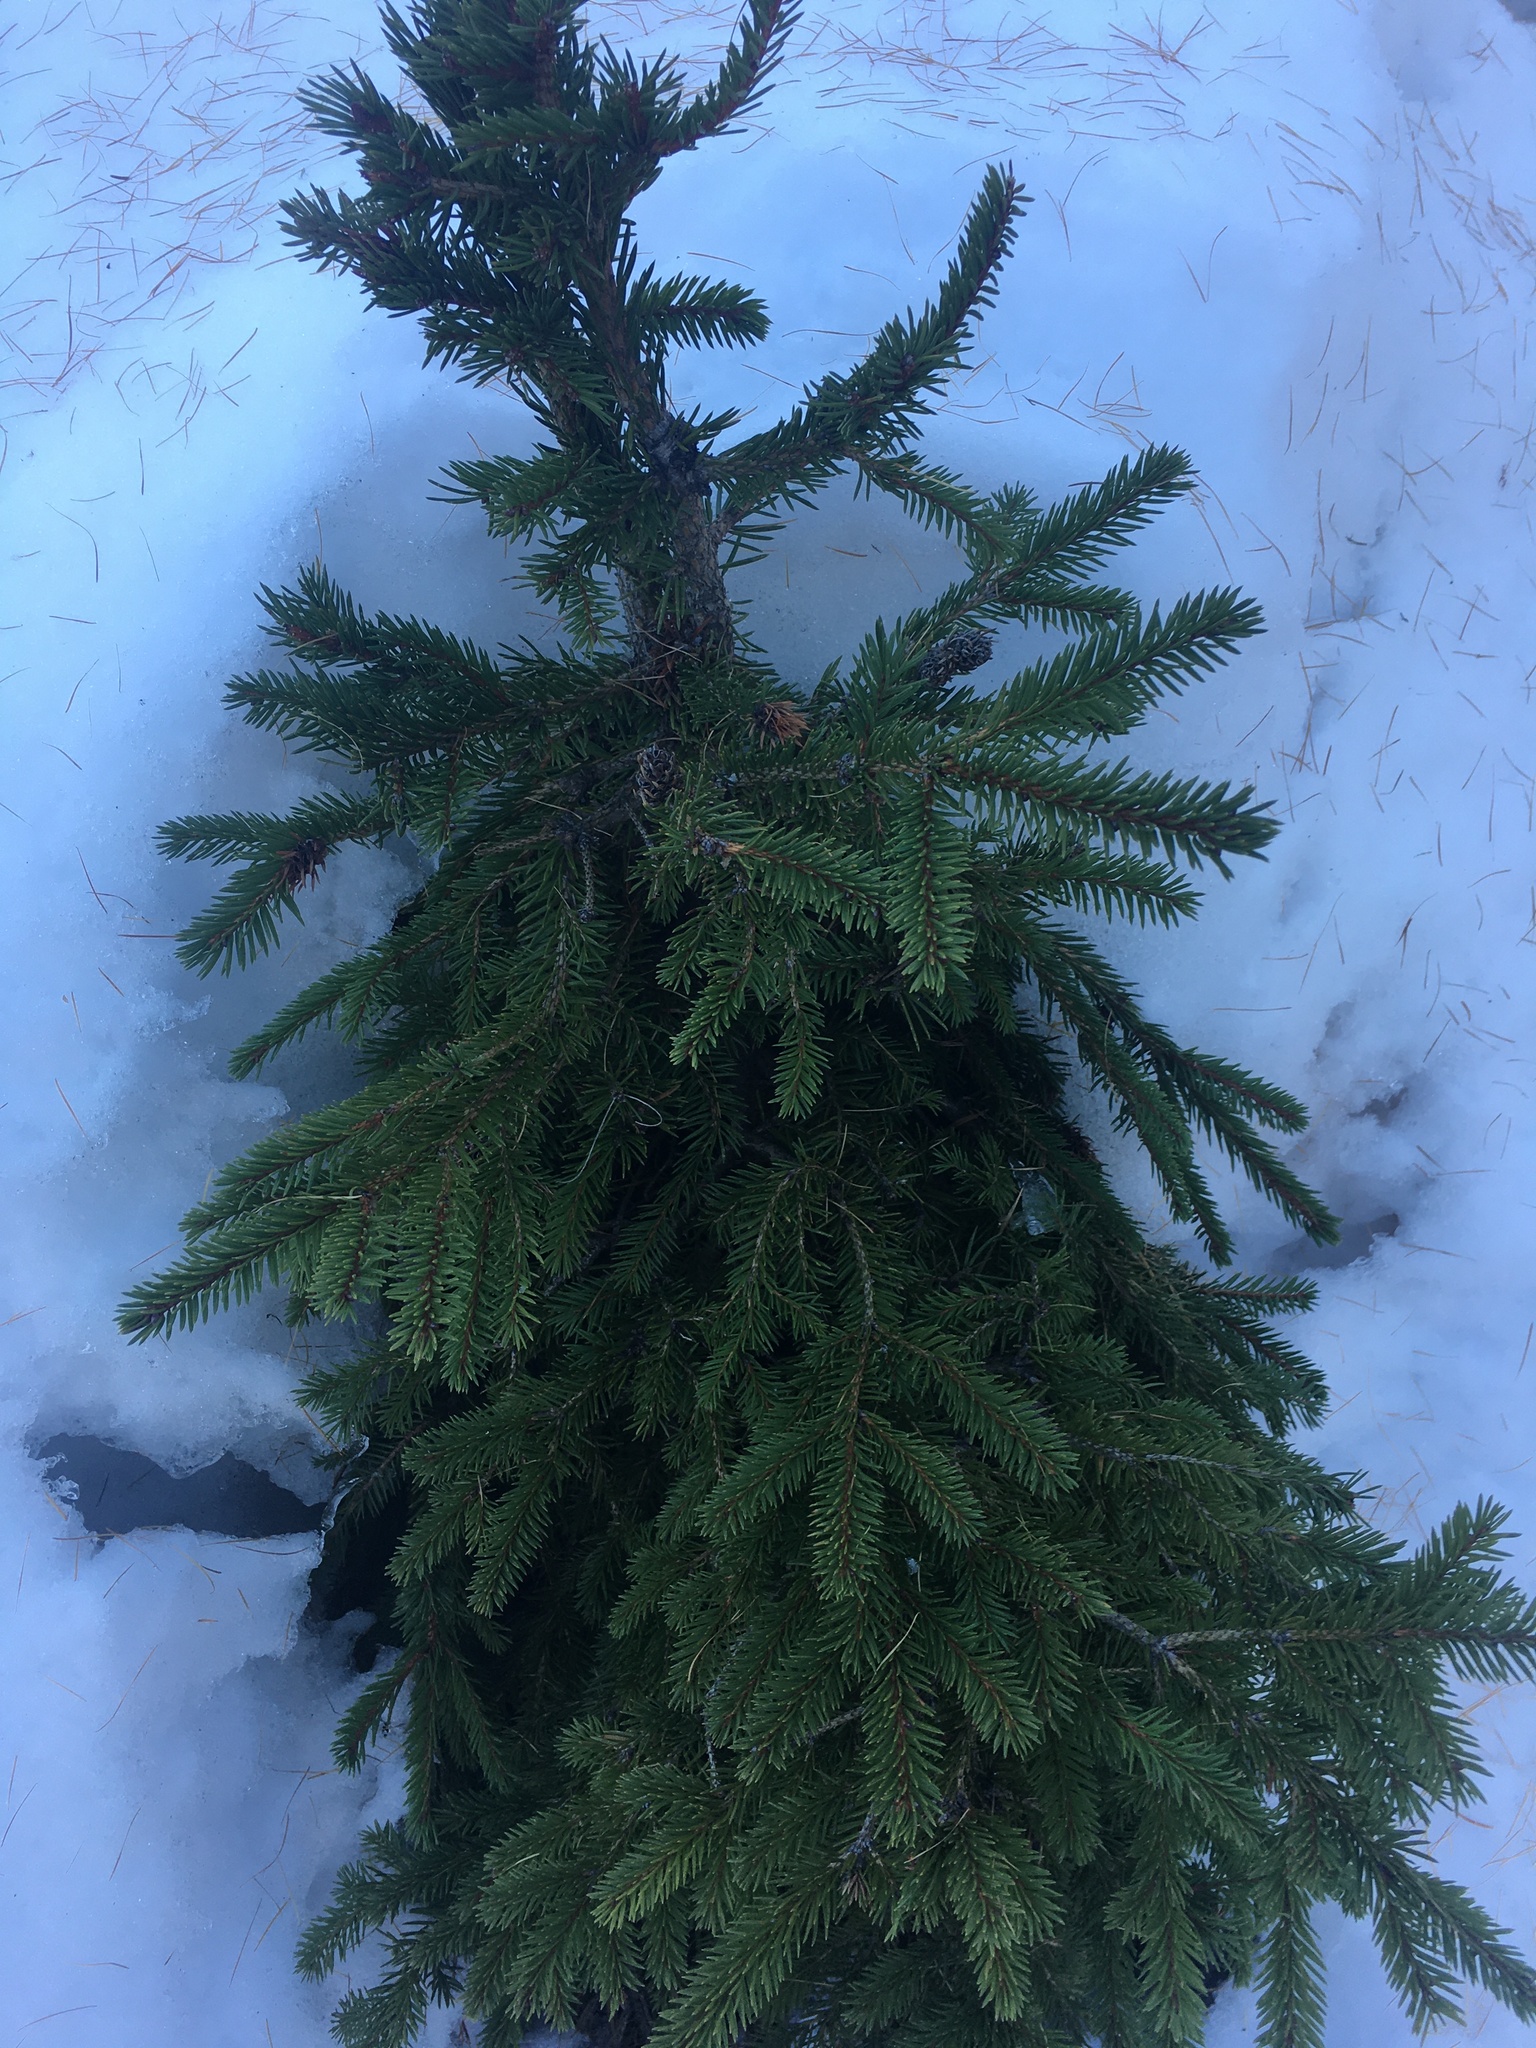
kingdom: Plantae
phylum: Tracheophyta
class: Pinopsida
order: Pinales
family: Pinaceae
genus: Picea
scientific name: Picea abies
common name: Norway spruce
